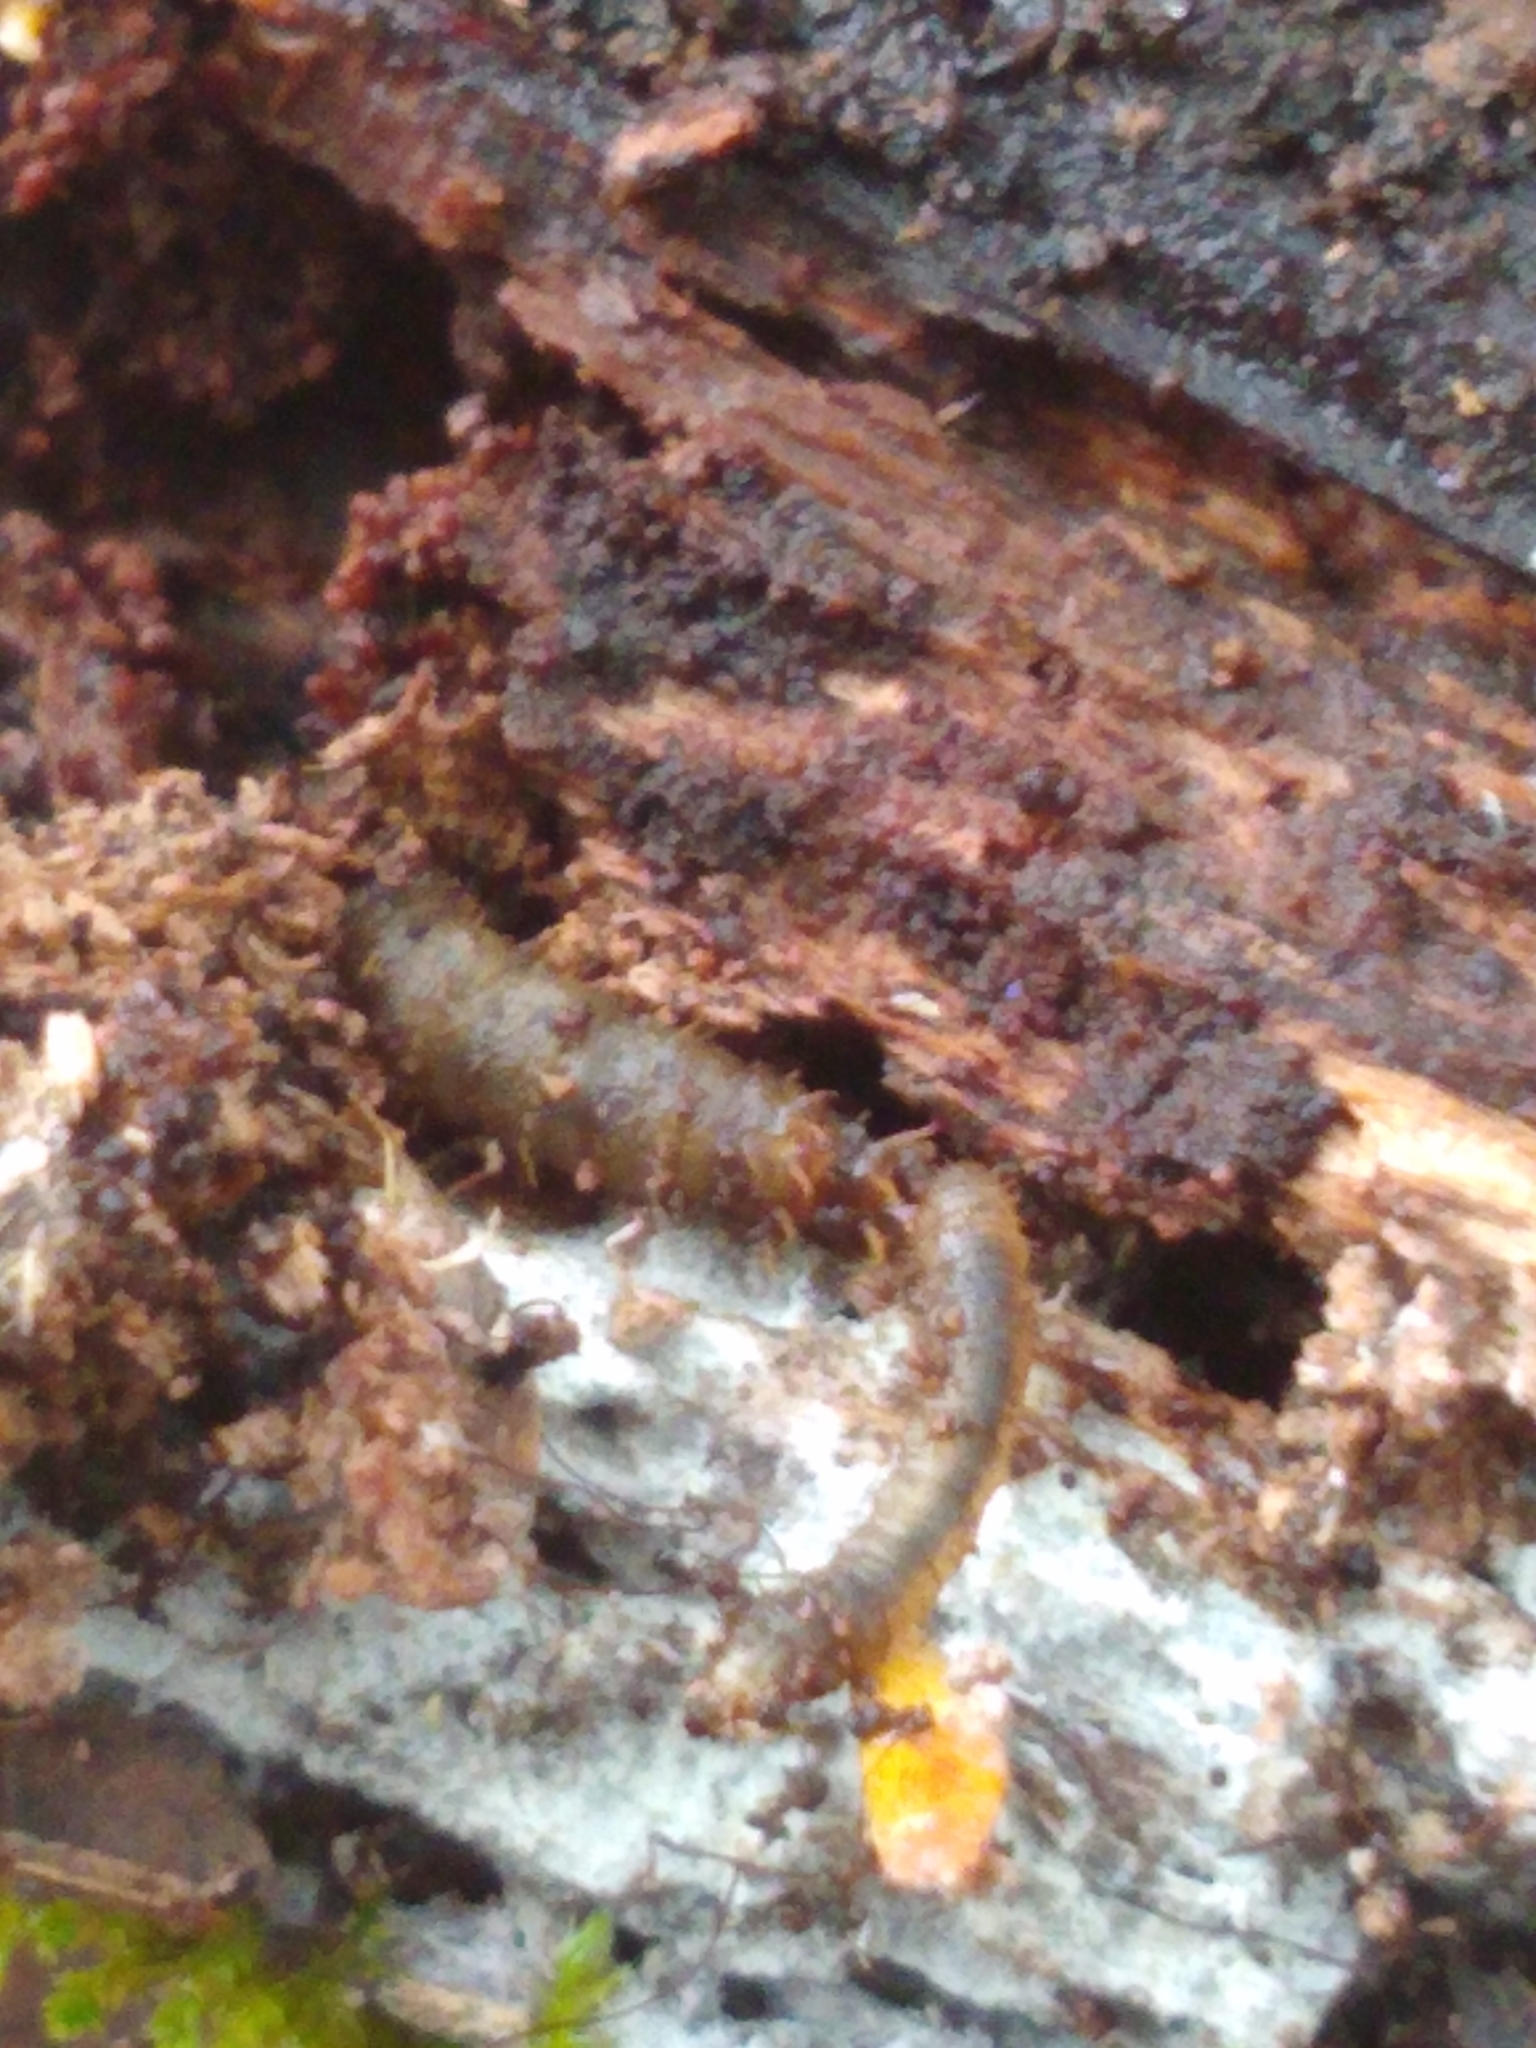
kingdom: Animalia
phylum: Arthropoda
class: Insecta
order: Diptera
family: Bibionidae
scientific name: Bibionidae
